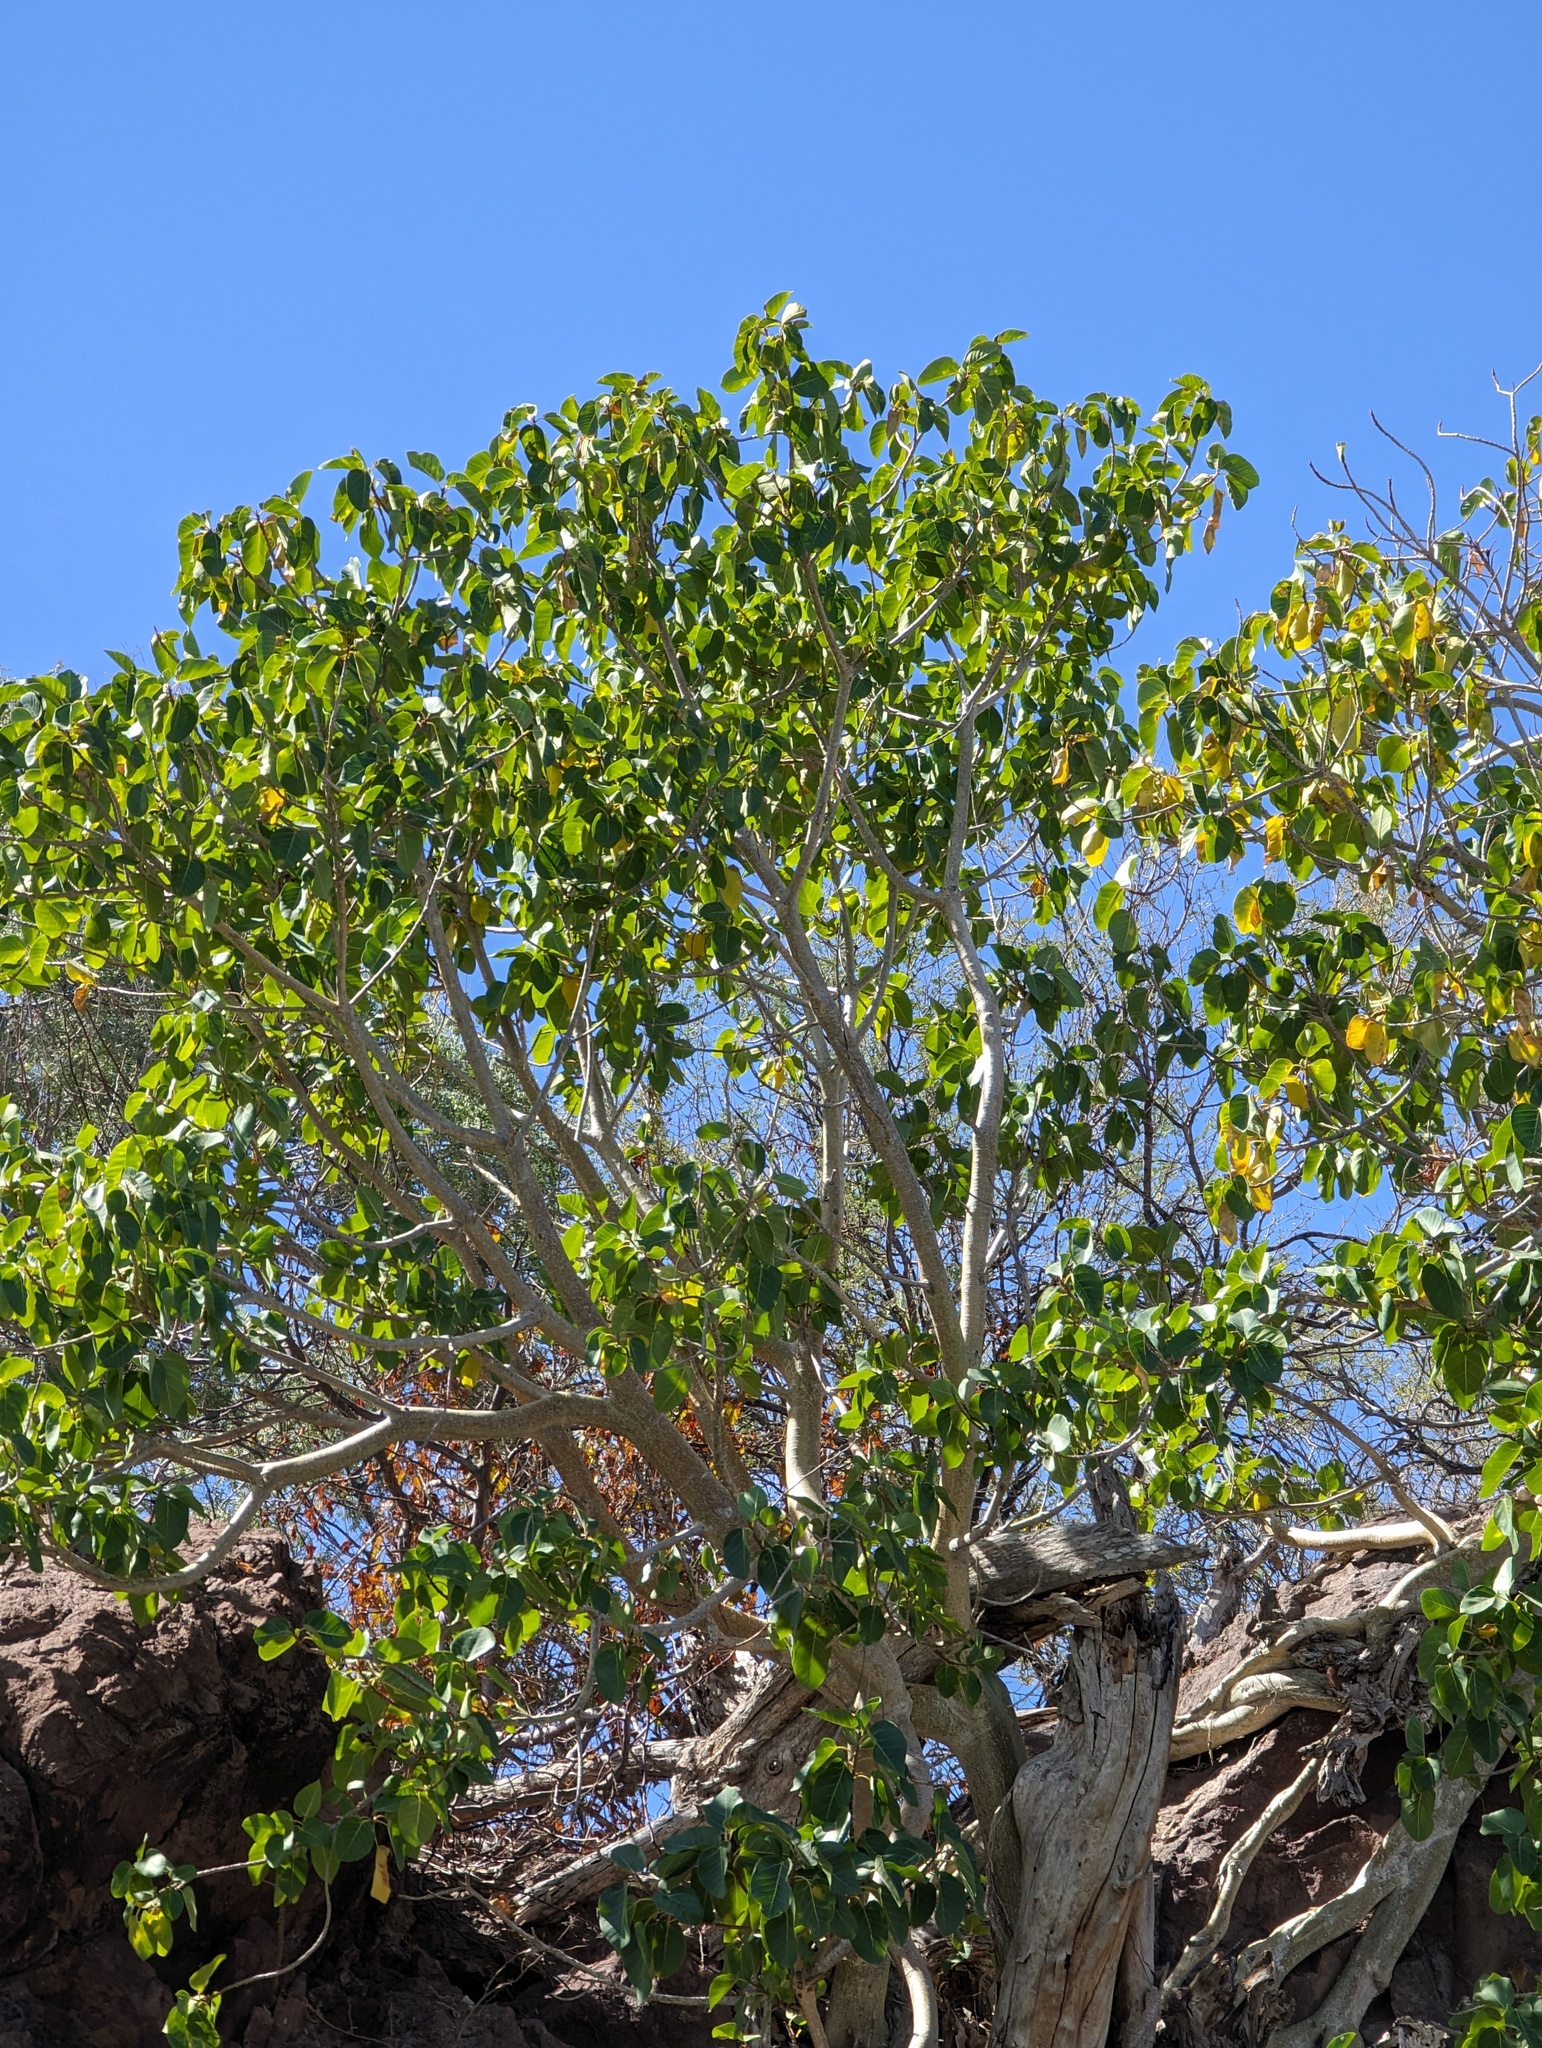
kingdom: Plantae
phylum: Tracheophyta
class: Magnoliopsida
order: Rosales
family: Moraceae
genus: Ficus
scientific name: Ficus petiolaris
